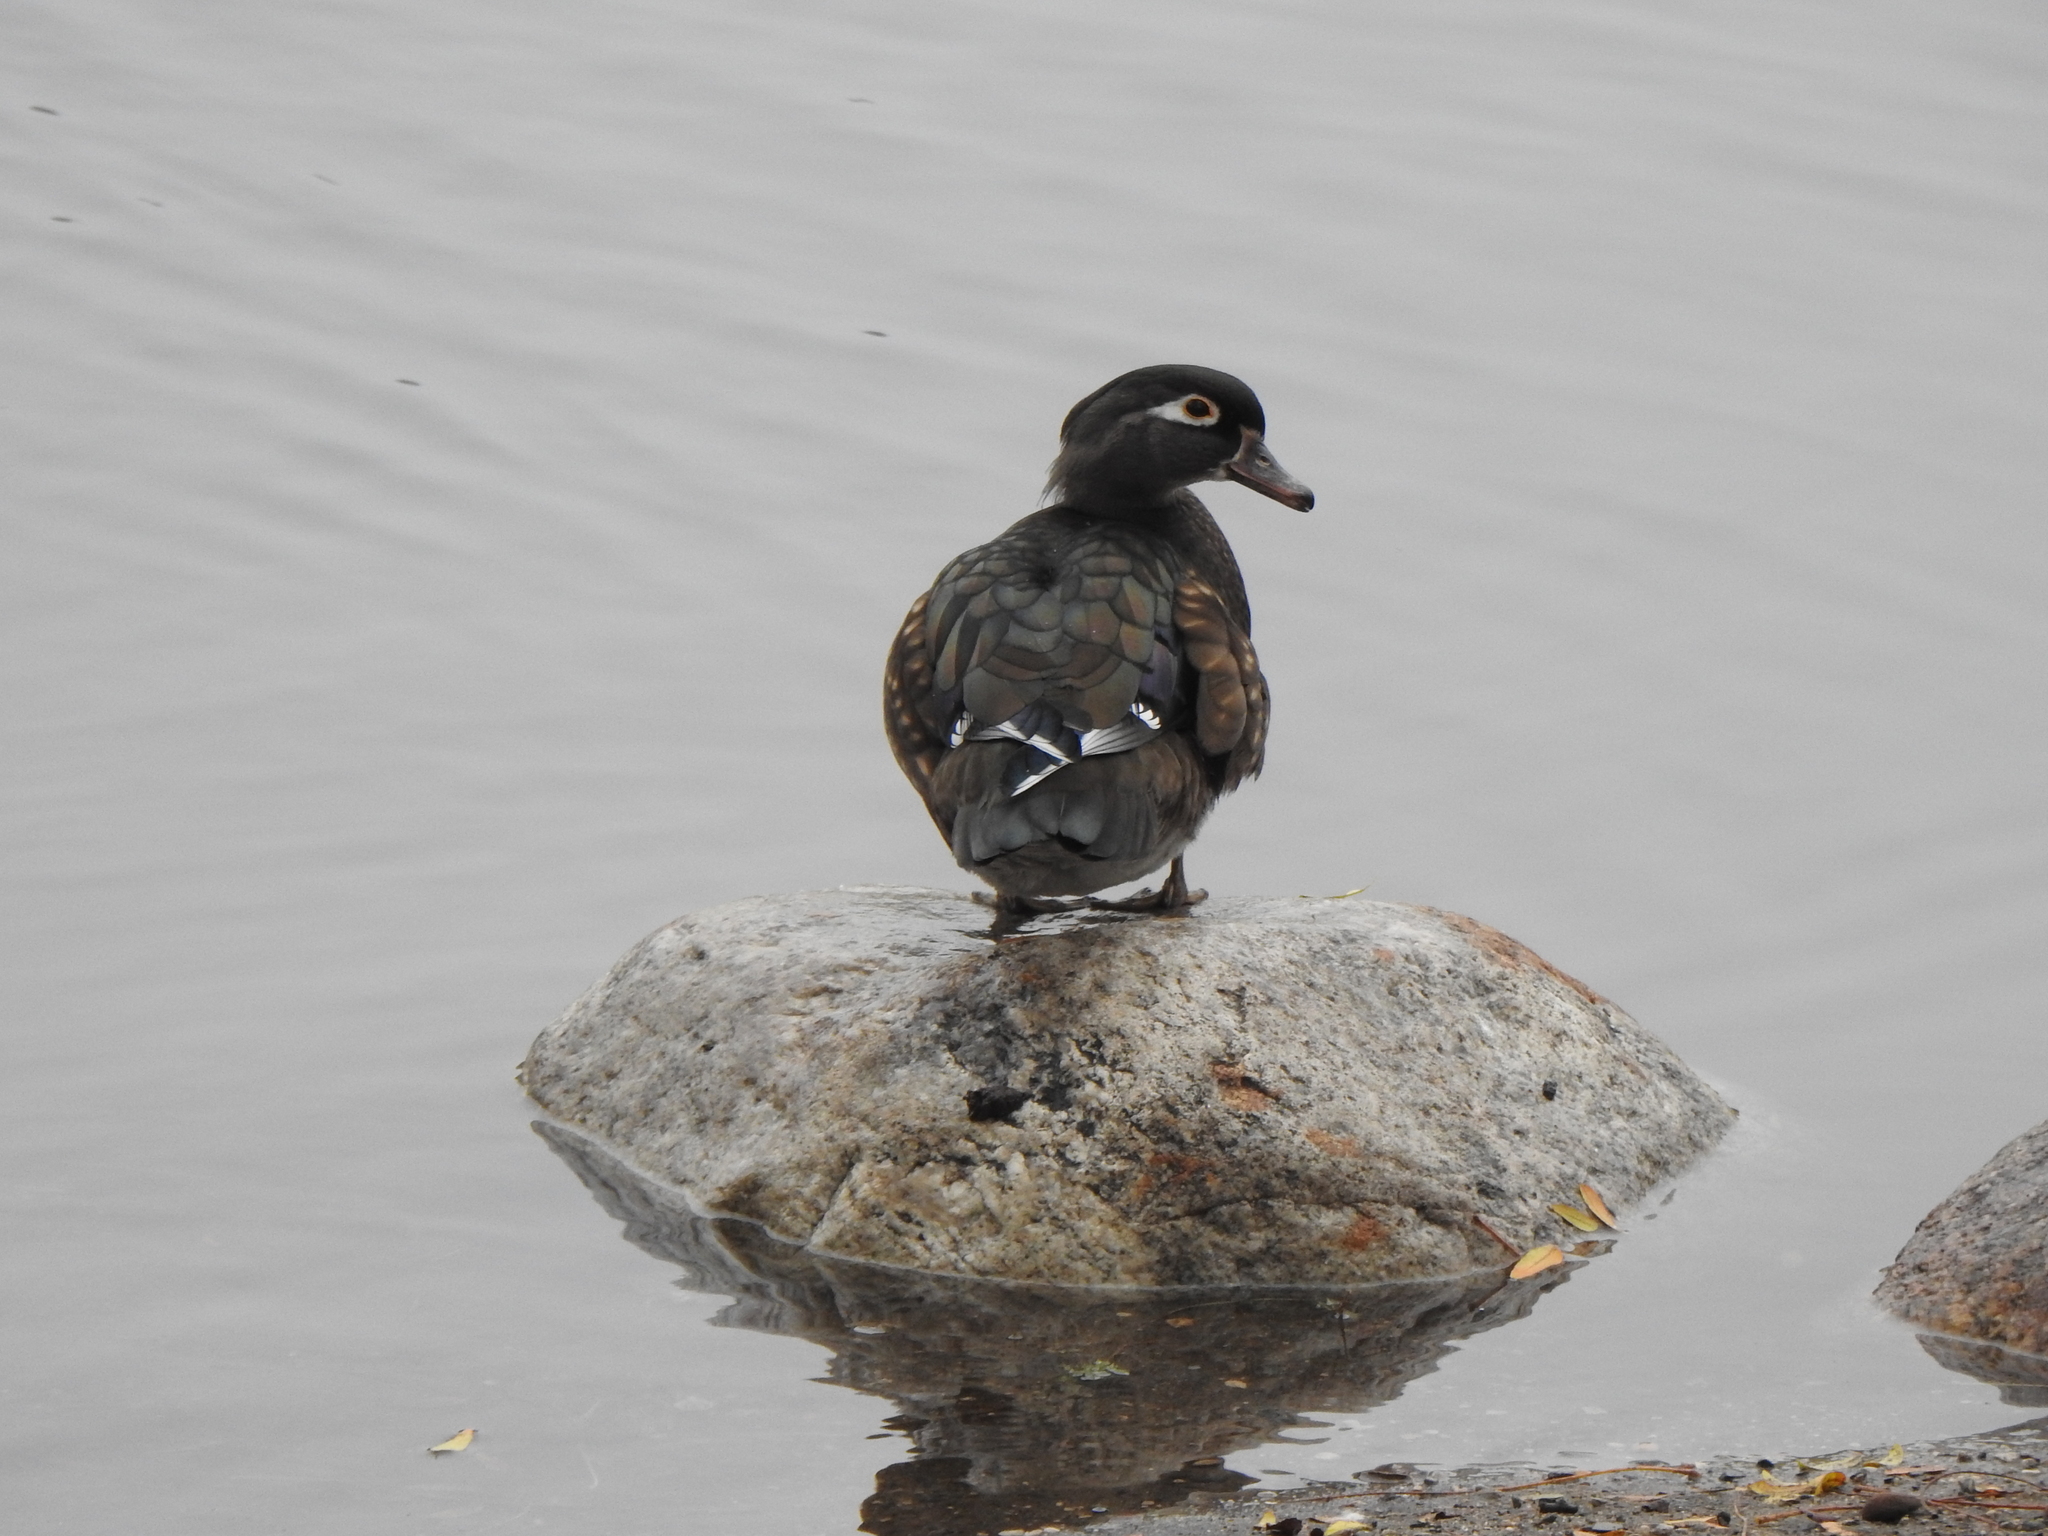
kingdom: Animalia
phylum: Chordata
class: Aves
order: Anseriformes
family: Anatidae
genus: Aix
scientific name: Aix sponsa
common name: Wood duck
